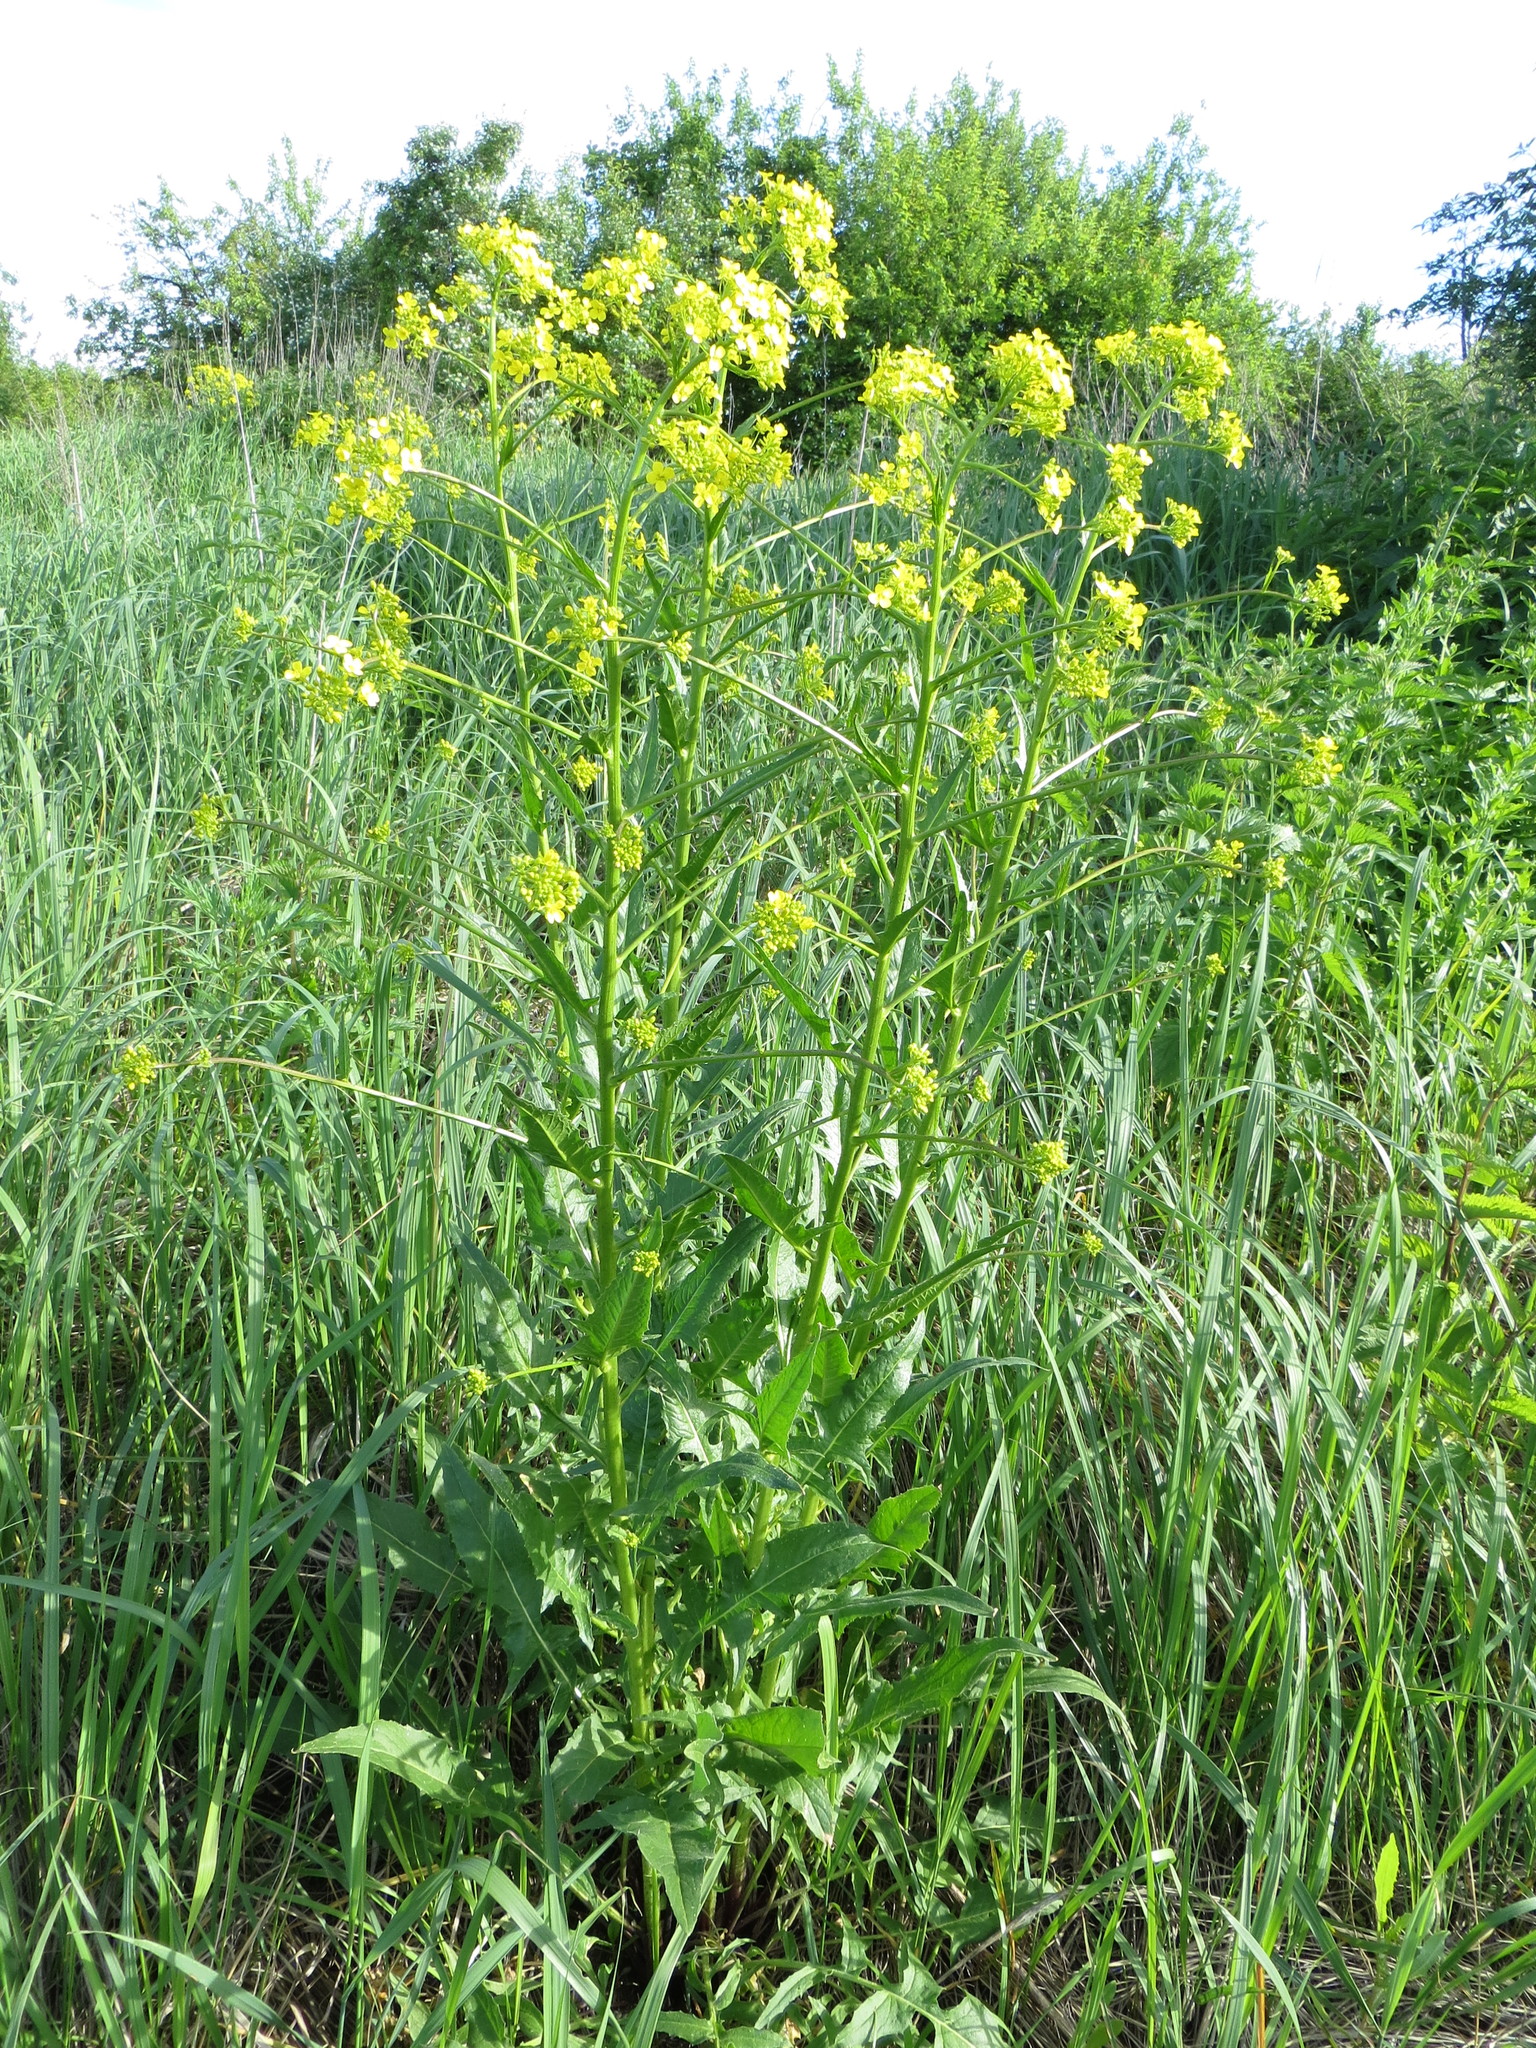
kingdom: Plantae
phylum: Tracheophyta
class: Magnoliopsida
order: Brassicales
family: Brassicaceae
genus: Bunias
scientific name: Bunias orientalis
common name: Warty-cabbage
